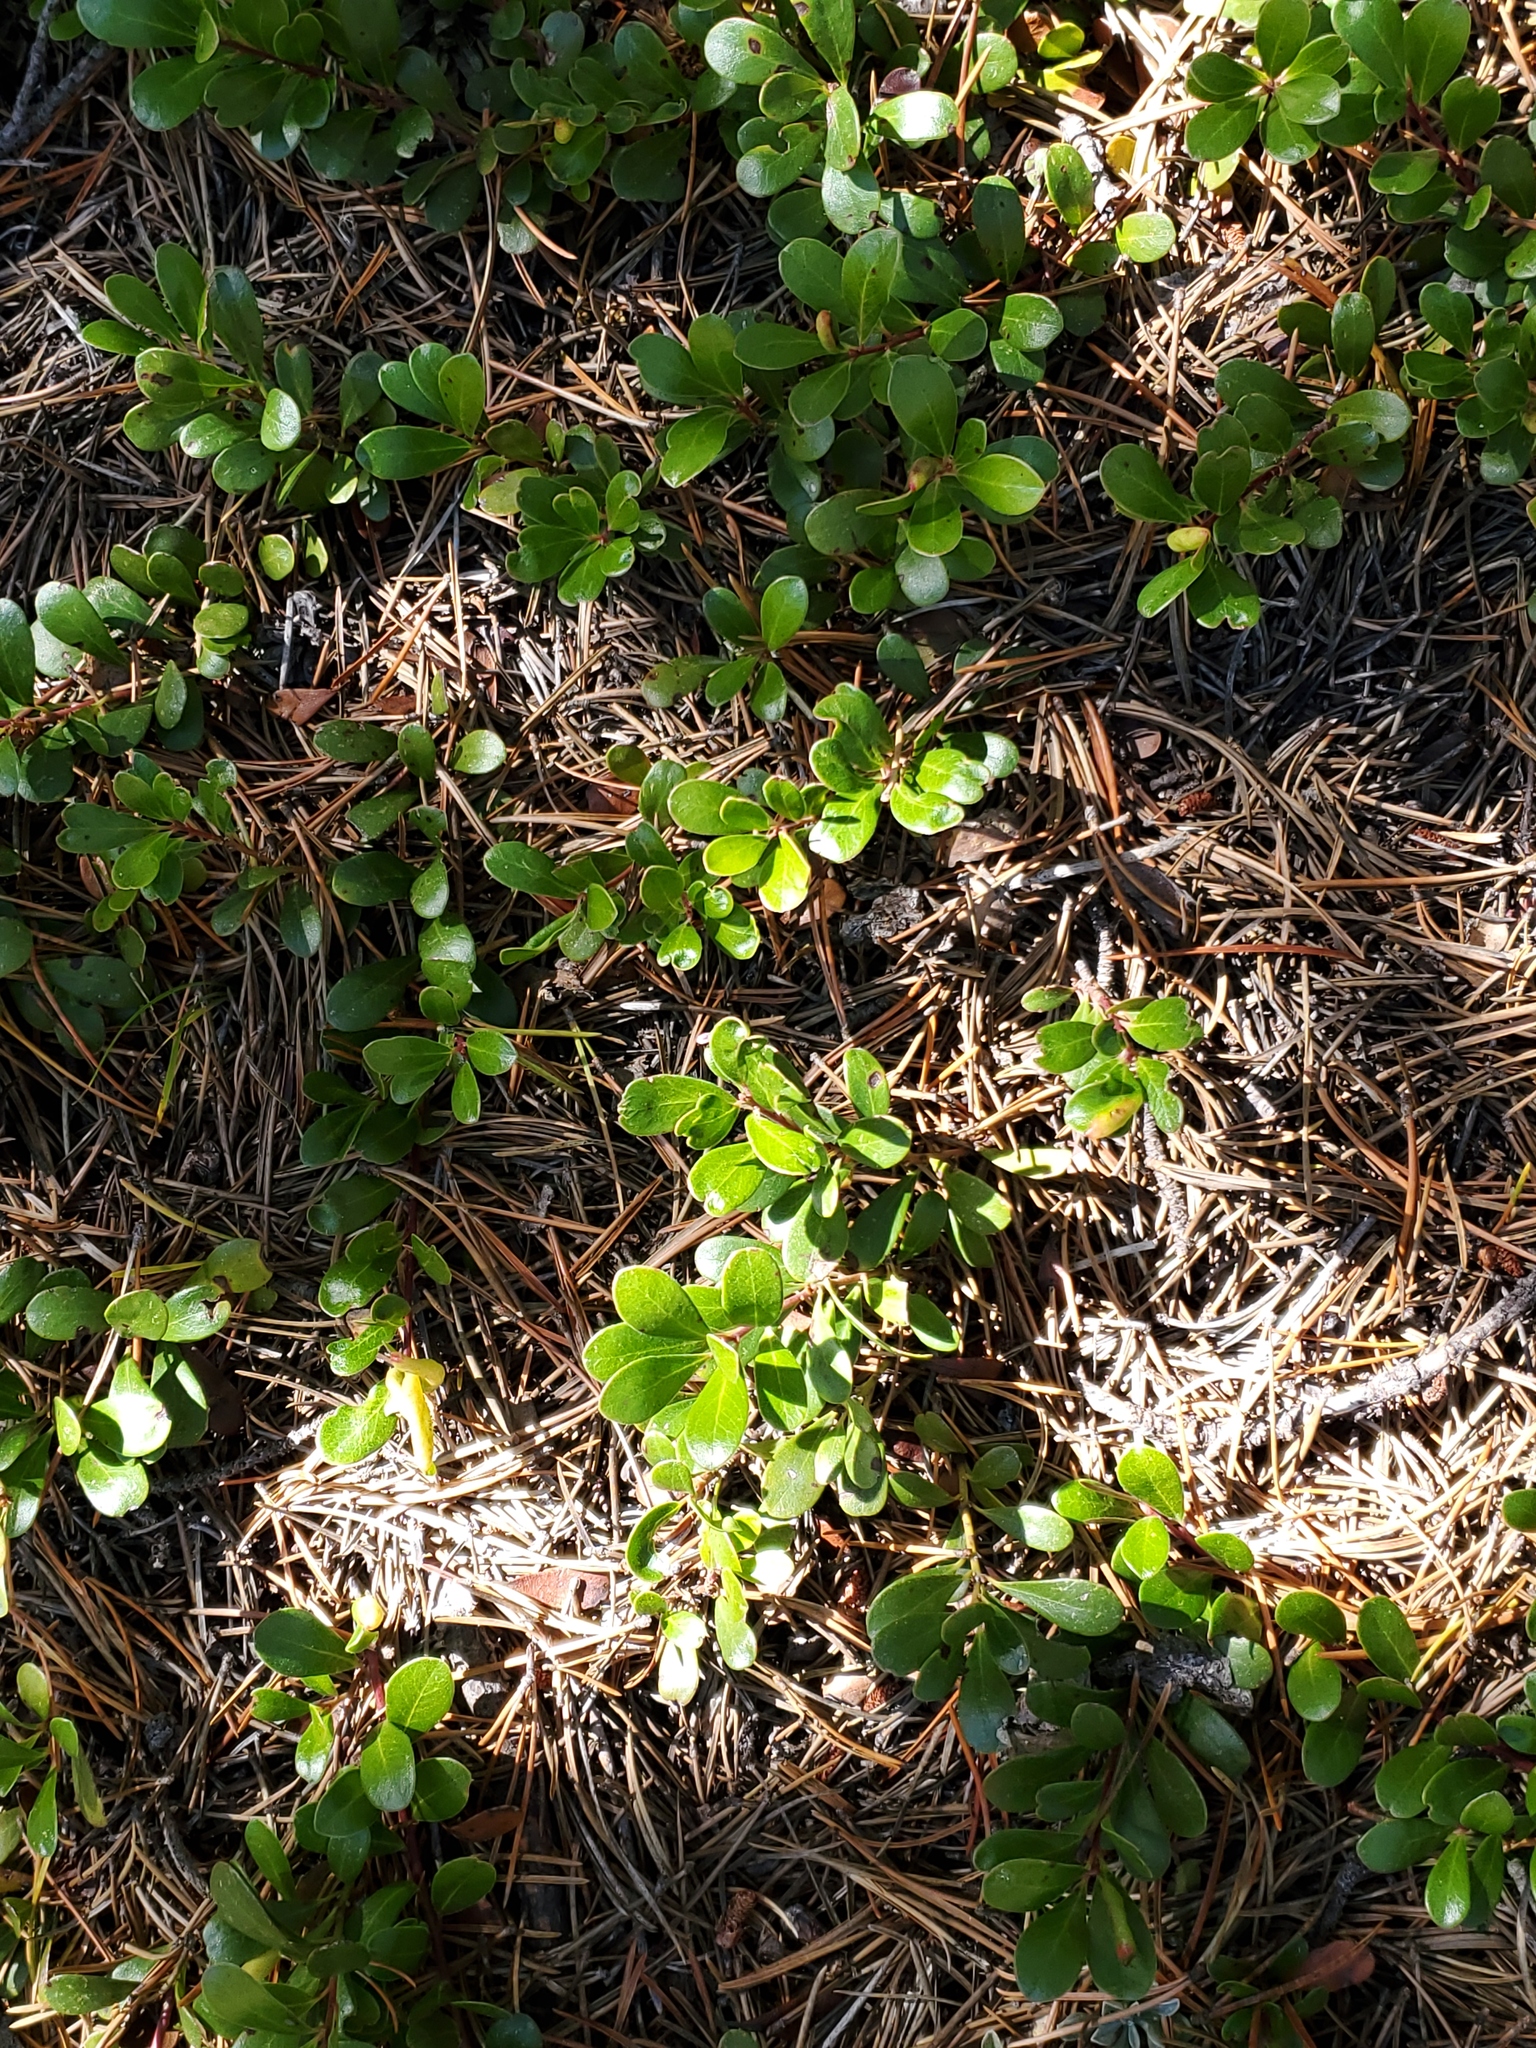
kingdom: Plantae
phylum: Tracheophyta
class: Magnoliopsida
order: Ericales
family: Ericaceae
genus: Arctostaphylos
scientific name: Arctostaphylos uva-ursi
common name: Bearberry
